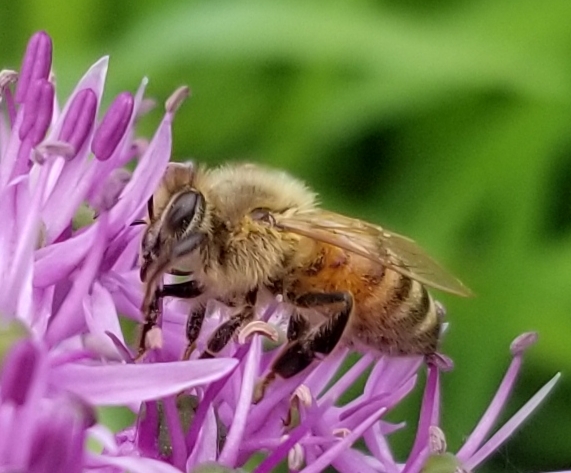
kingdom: Animalia
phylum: Arthropoda
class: Insecta
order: Hymenoptera
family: Apidae
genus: Apis
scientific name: Apis mellifera
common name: Honey bee
